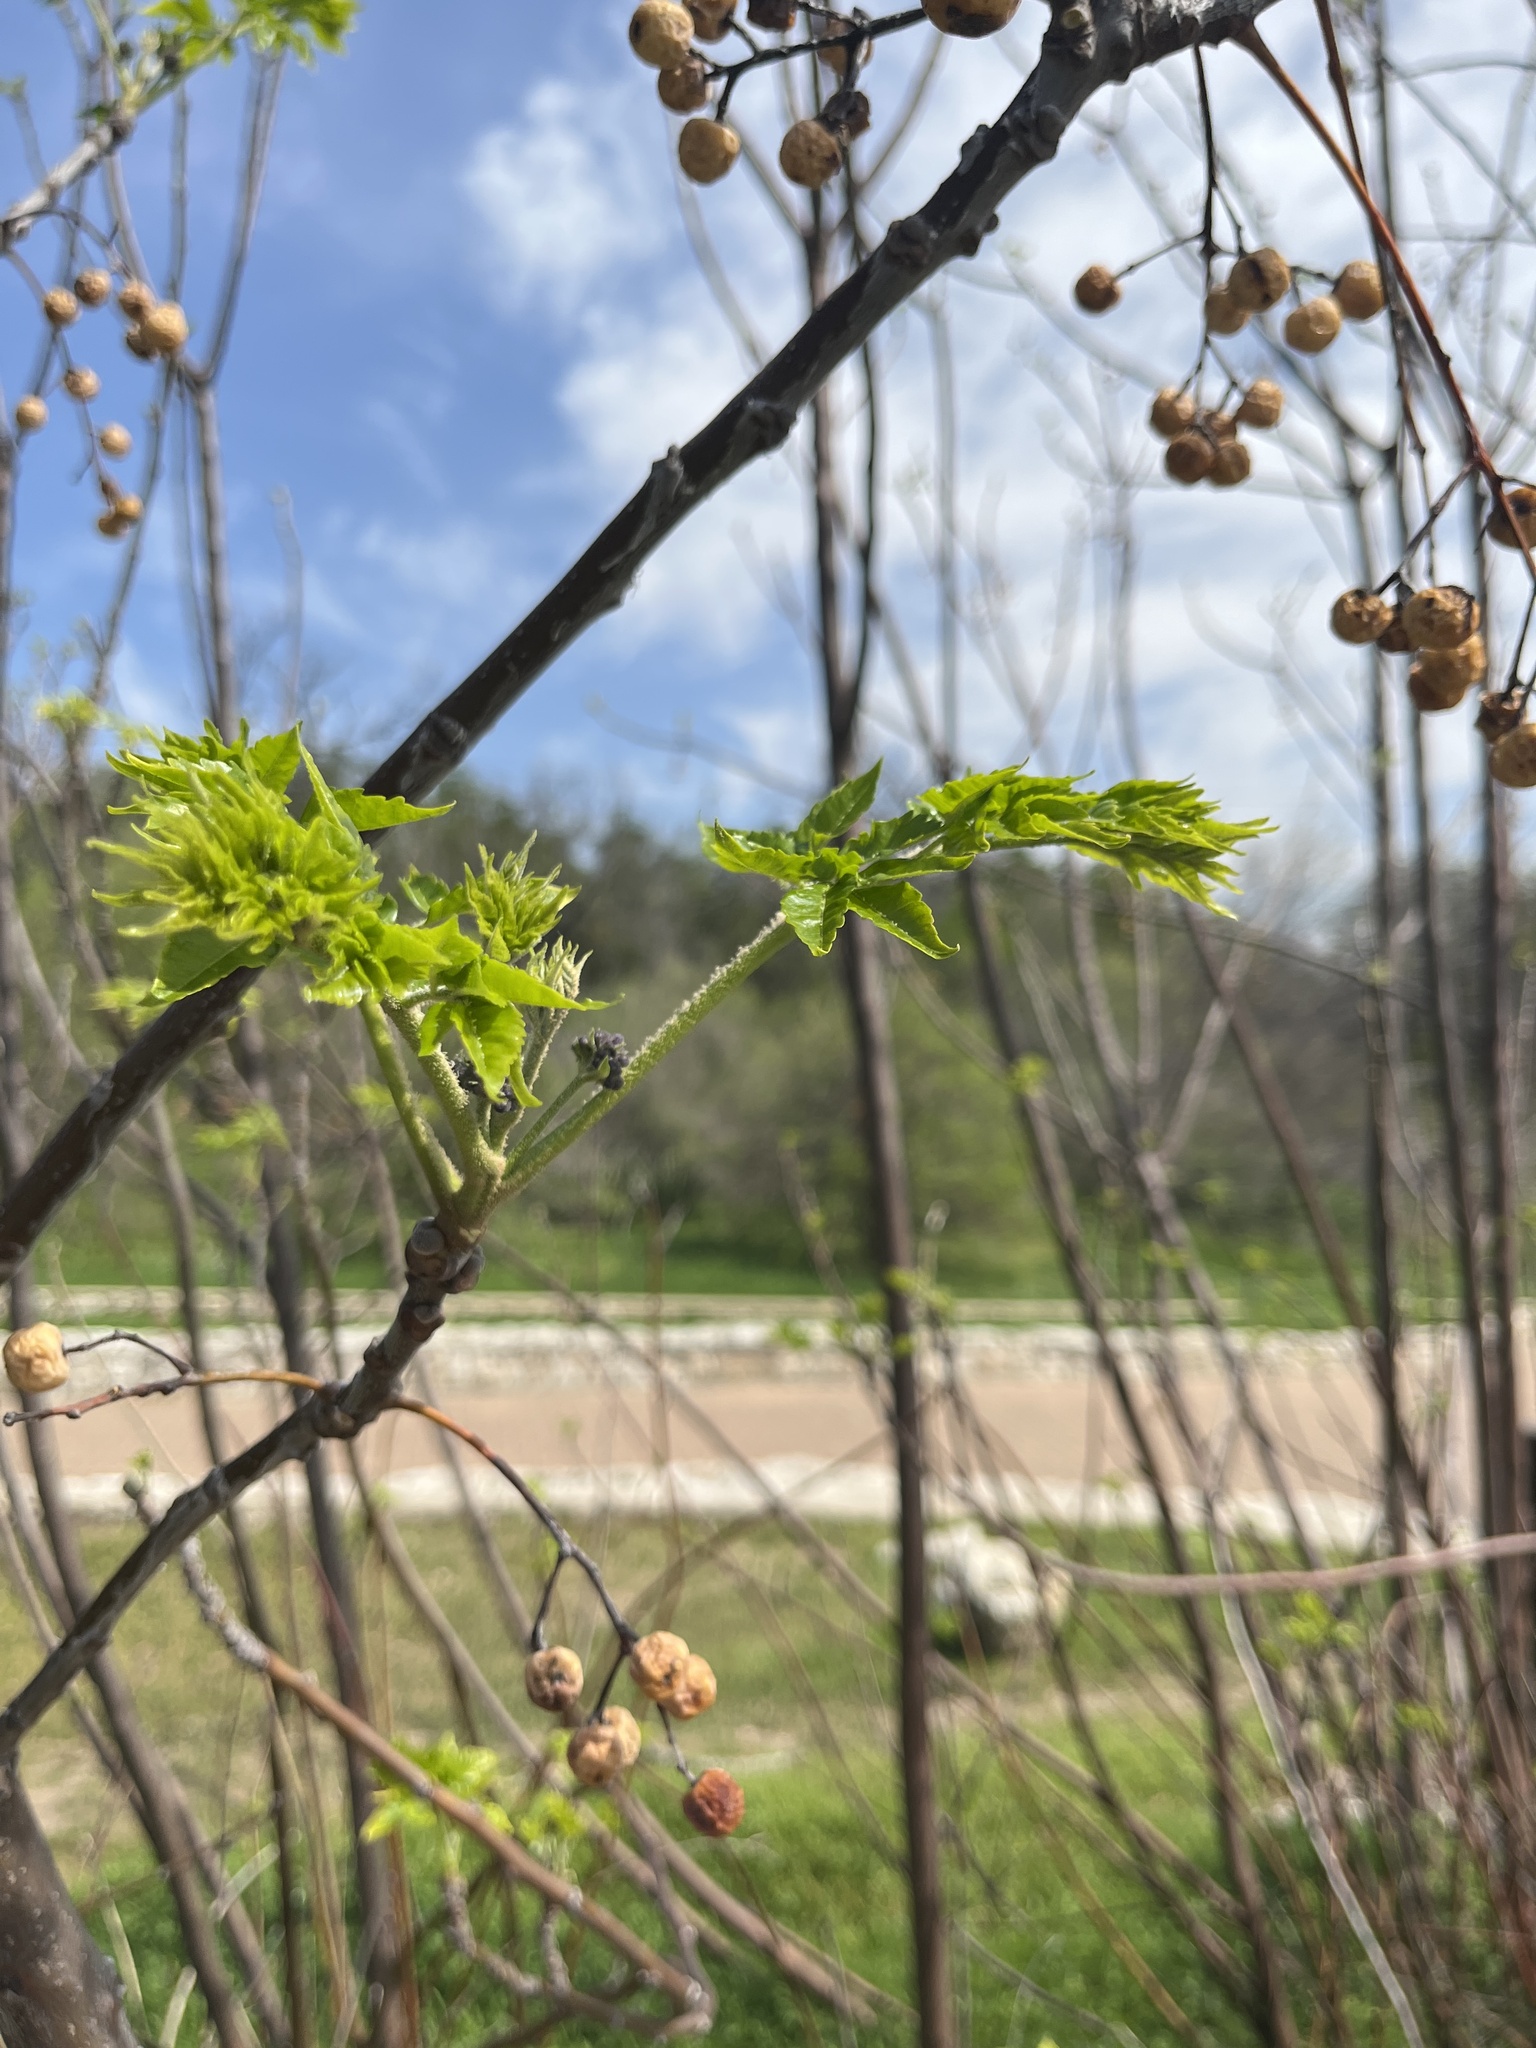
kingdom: Plantae
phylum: Tracheophyta
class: Magnoliopsida
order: Sapindales
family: Meliaceae
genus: Melia
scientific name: Melia azedarach
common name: Chinaberrytree
